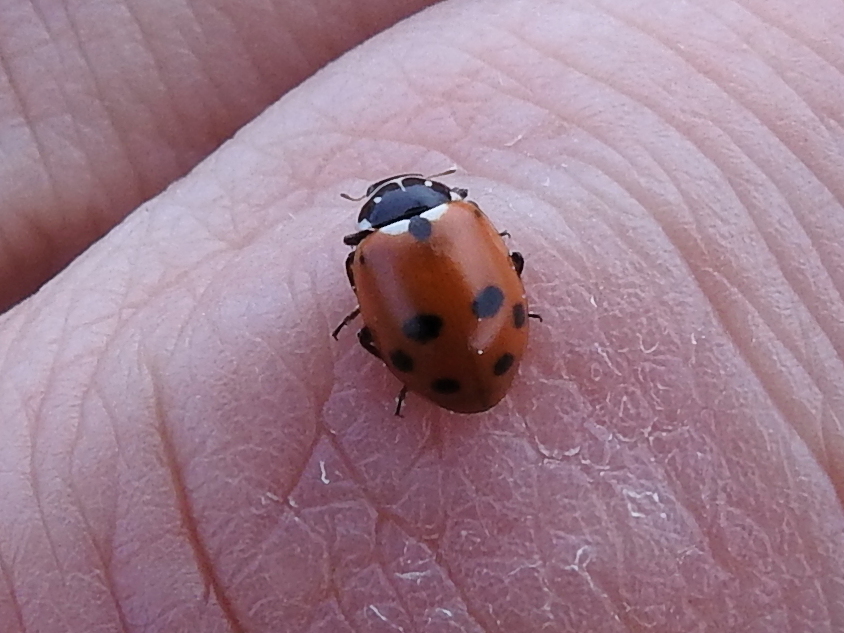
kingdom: Animalia
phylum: Arthropoda
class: Insecta
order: Coleoptera
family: Coccinellidae
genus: Hippodamia
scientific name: Hippodamia variegata
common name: Ladybird beetle
